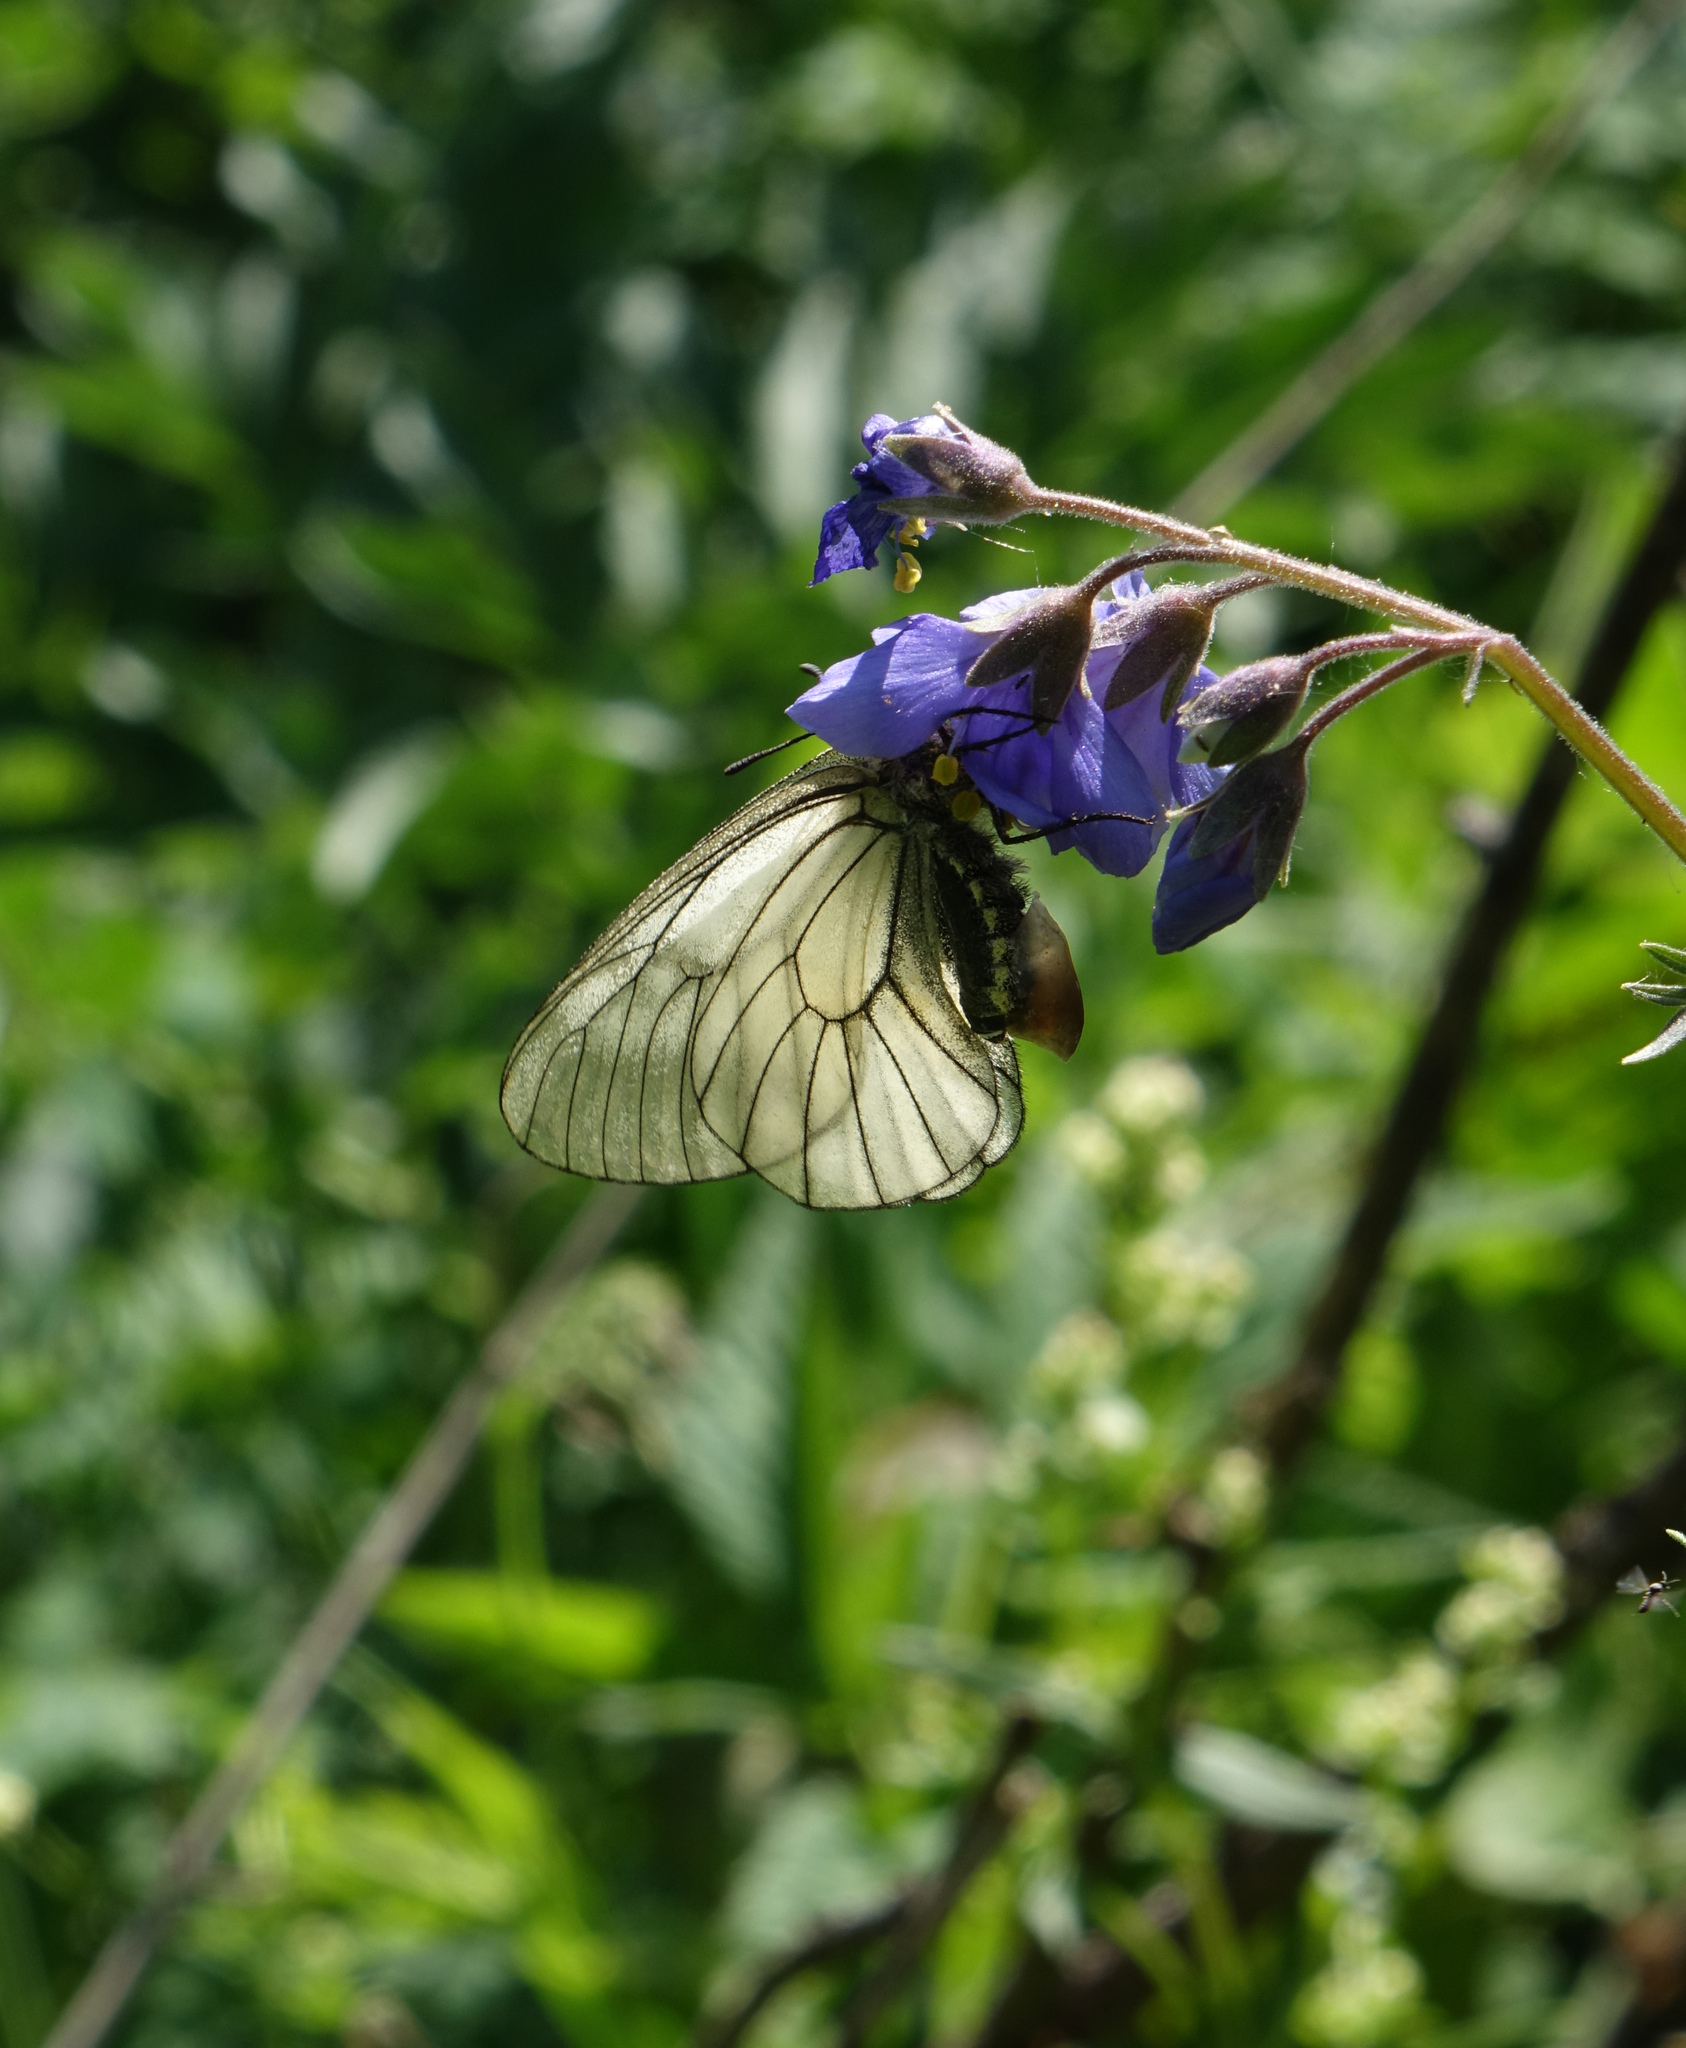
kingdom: Animalia
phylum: Arthropoda
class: Insecta
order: Lepidoptera
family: Papilionidae
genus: Parnassius
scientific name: Parnassius stubbendorfii
